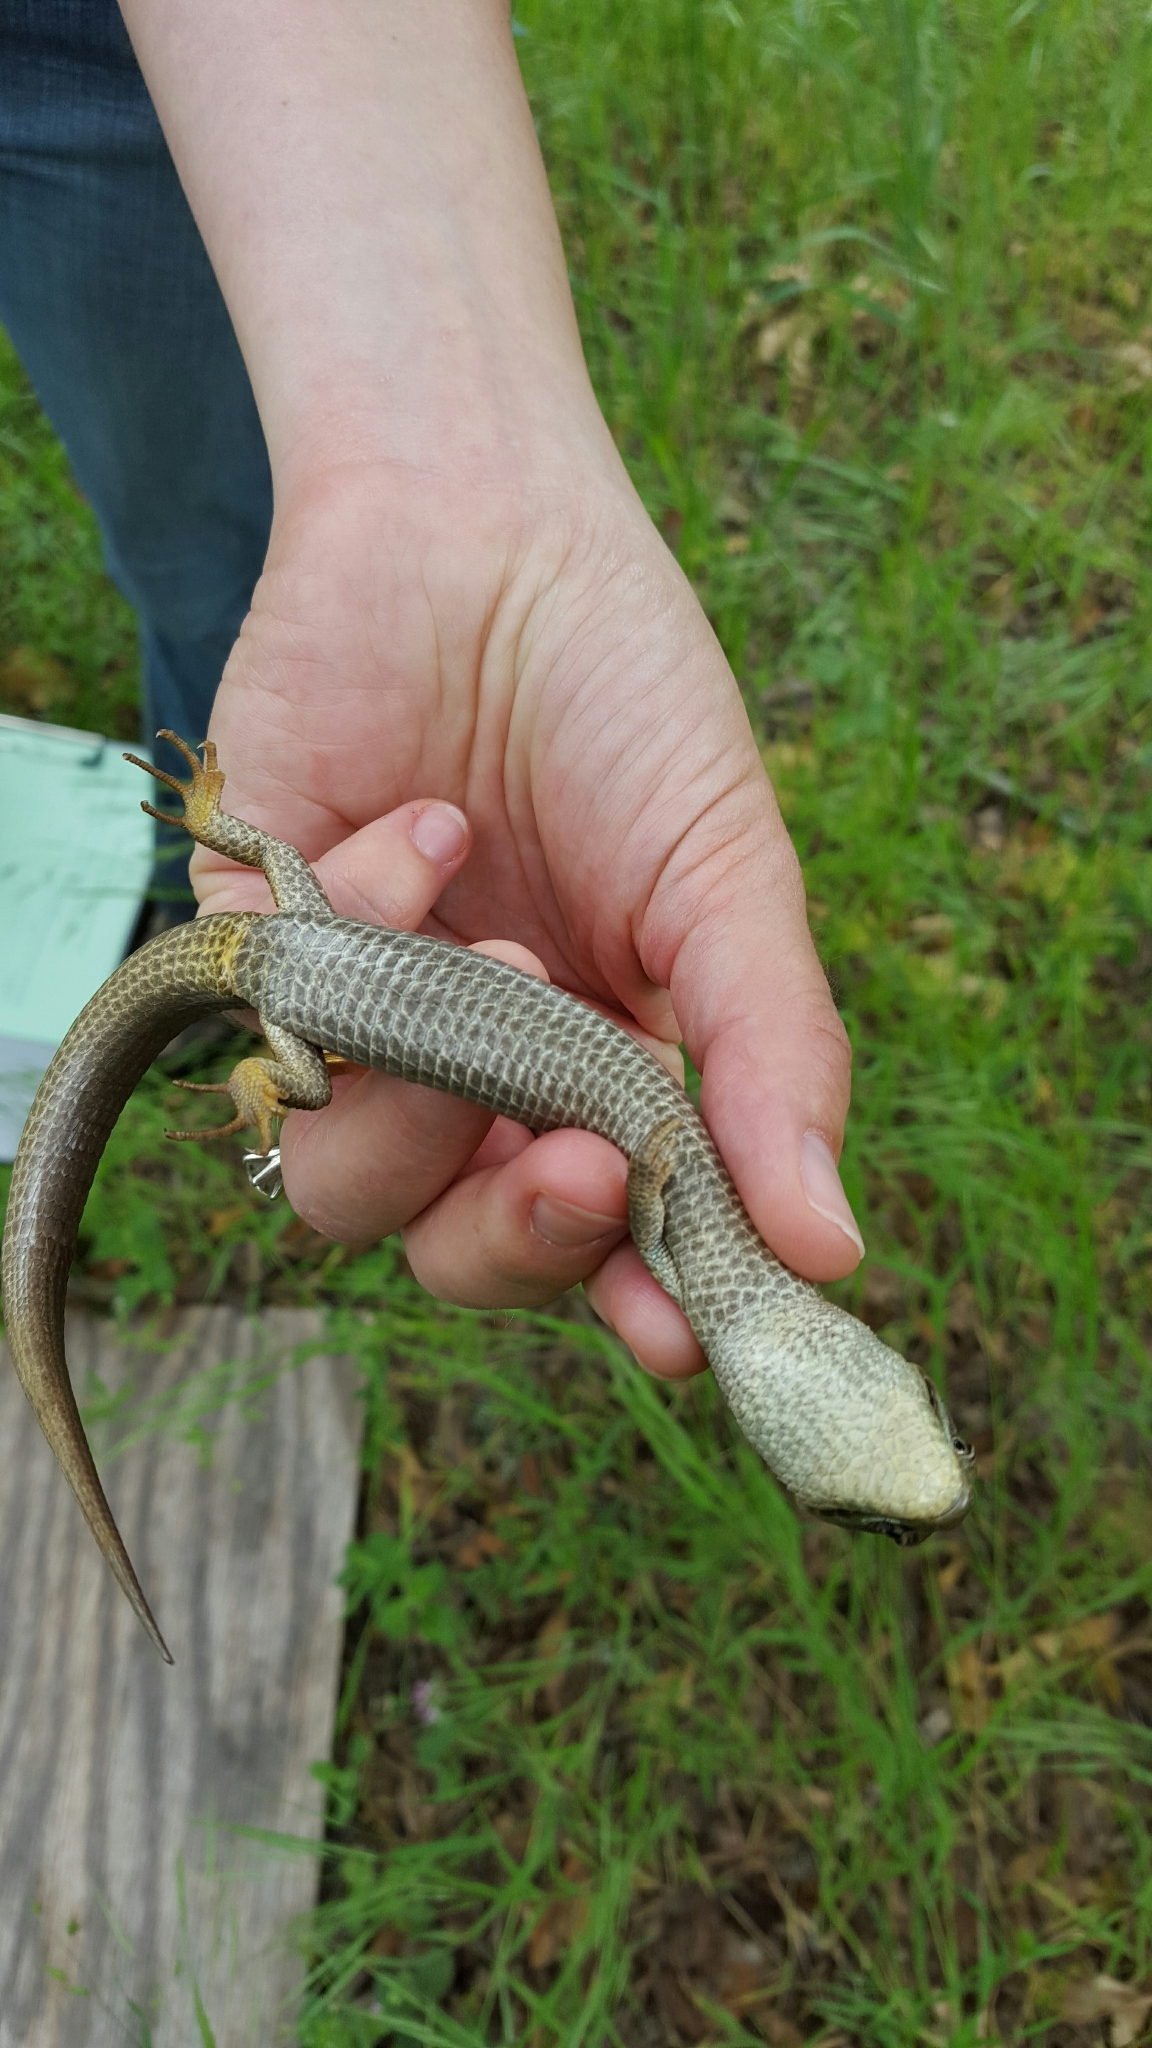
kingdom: Animalia
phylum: Chordata
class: Squamata
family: Anguidae
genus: Elgaria
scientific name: Elgaria multicarinata
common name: Southern alligator lizard
